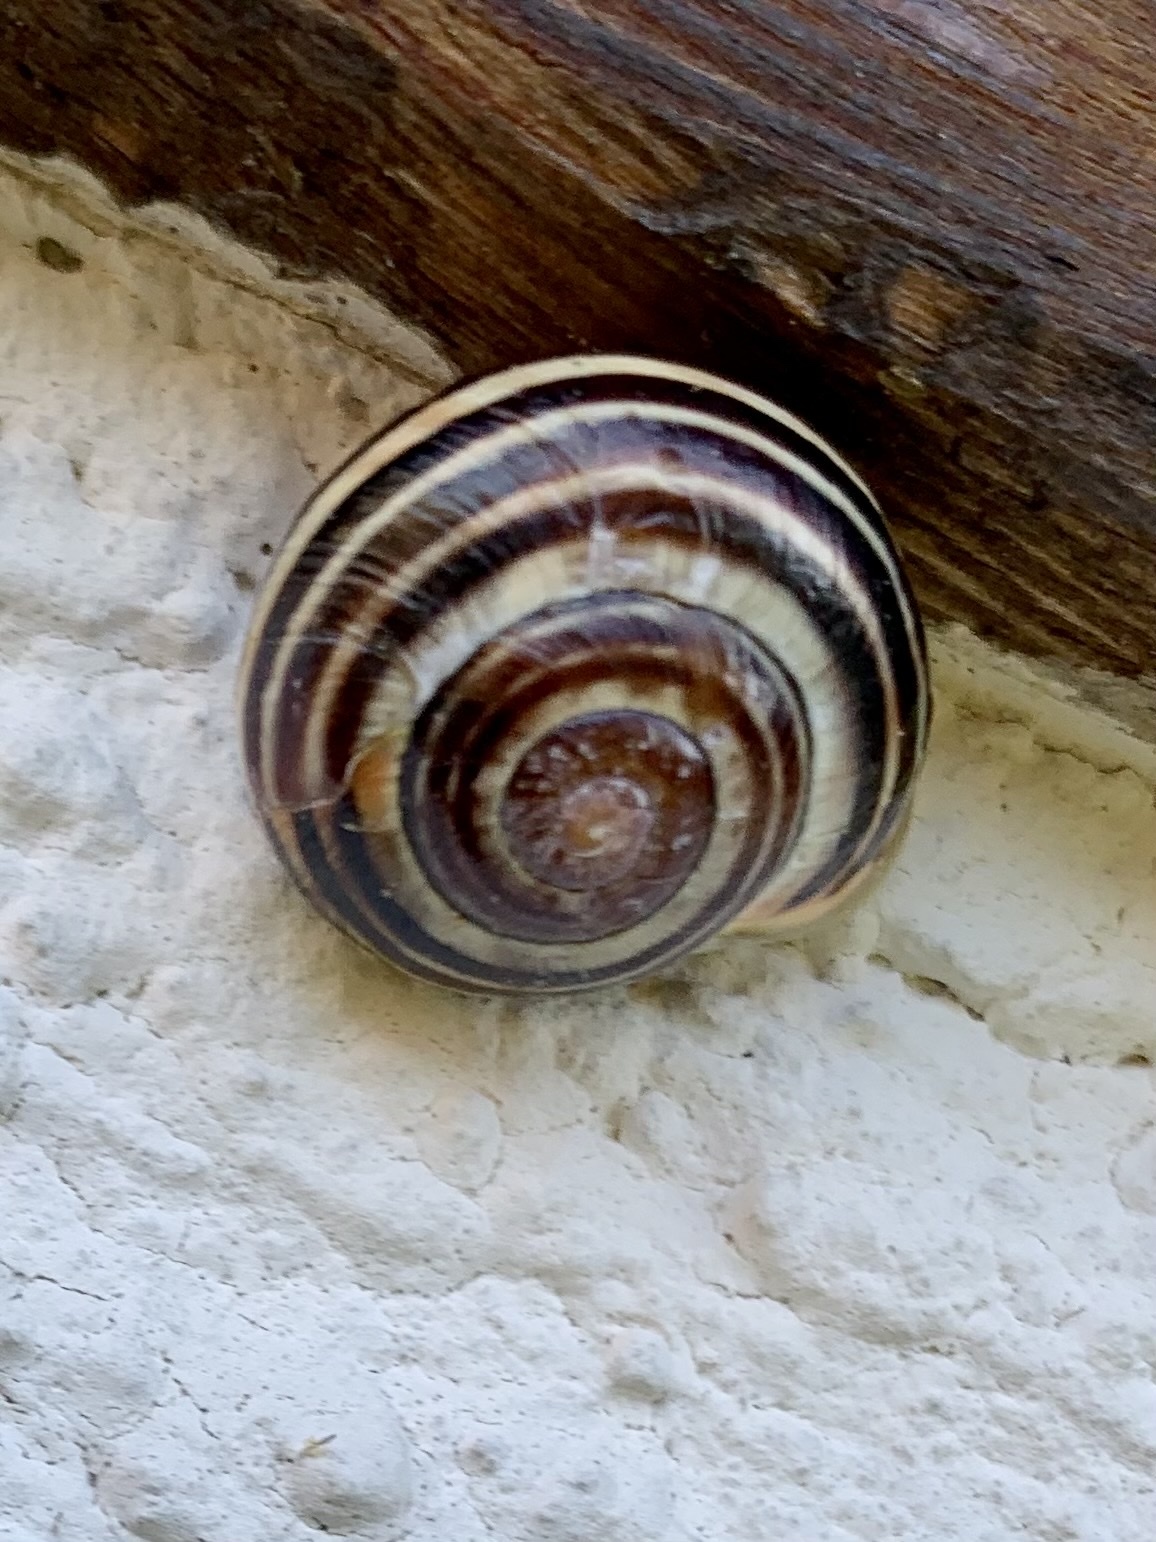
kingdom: Animalia
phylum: Mollusca
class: Gastropoda
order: Stylommatophora
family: Helicidae
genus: Cepaea
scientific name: Cepaea nemoralis
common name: Grovesnail
